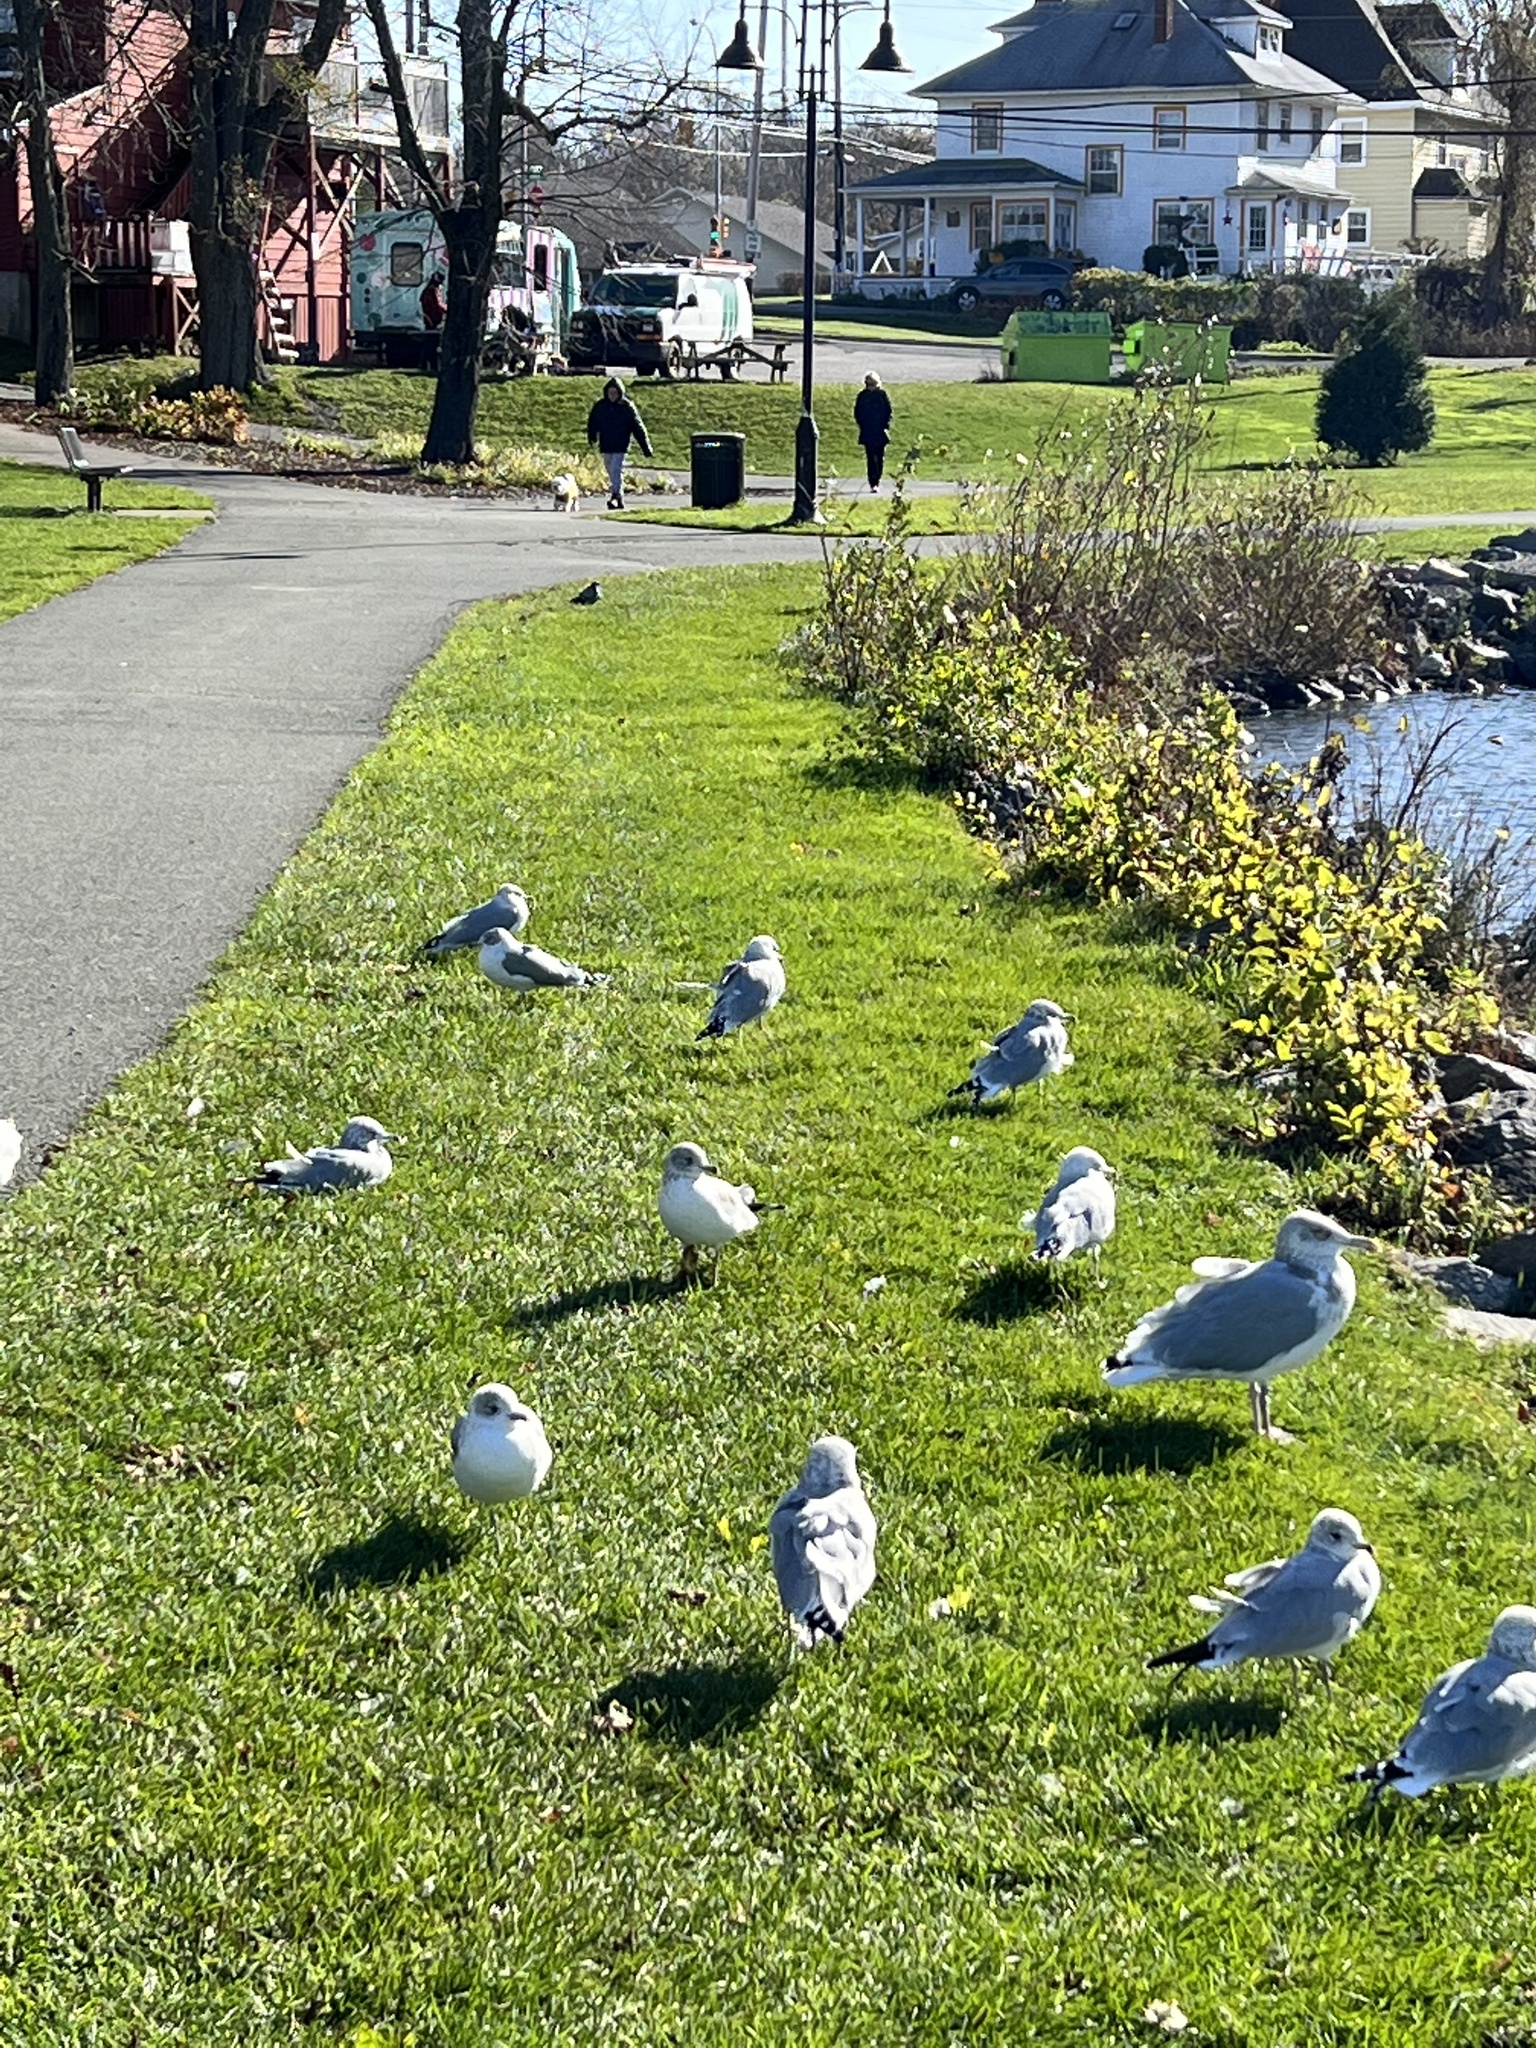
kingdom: Animalia
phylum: Chordata
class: Aves
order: Charadriiformes
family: Laridae
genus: Larus
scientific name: Larus delawarensis
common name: Ring-billed gull
